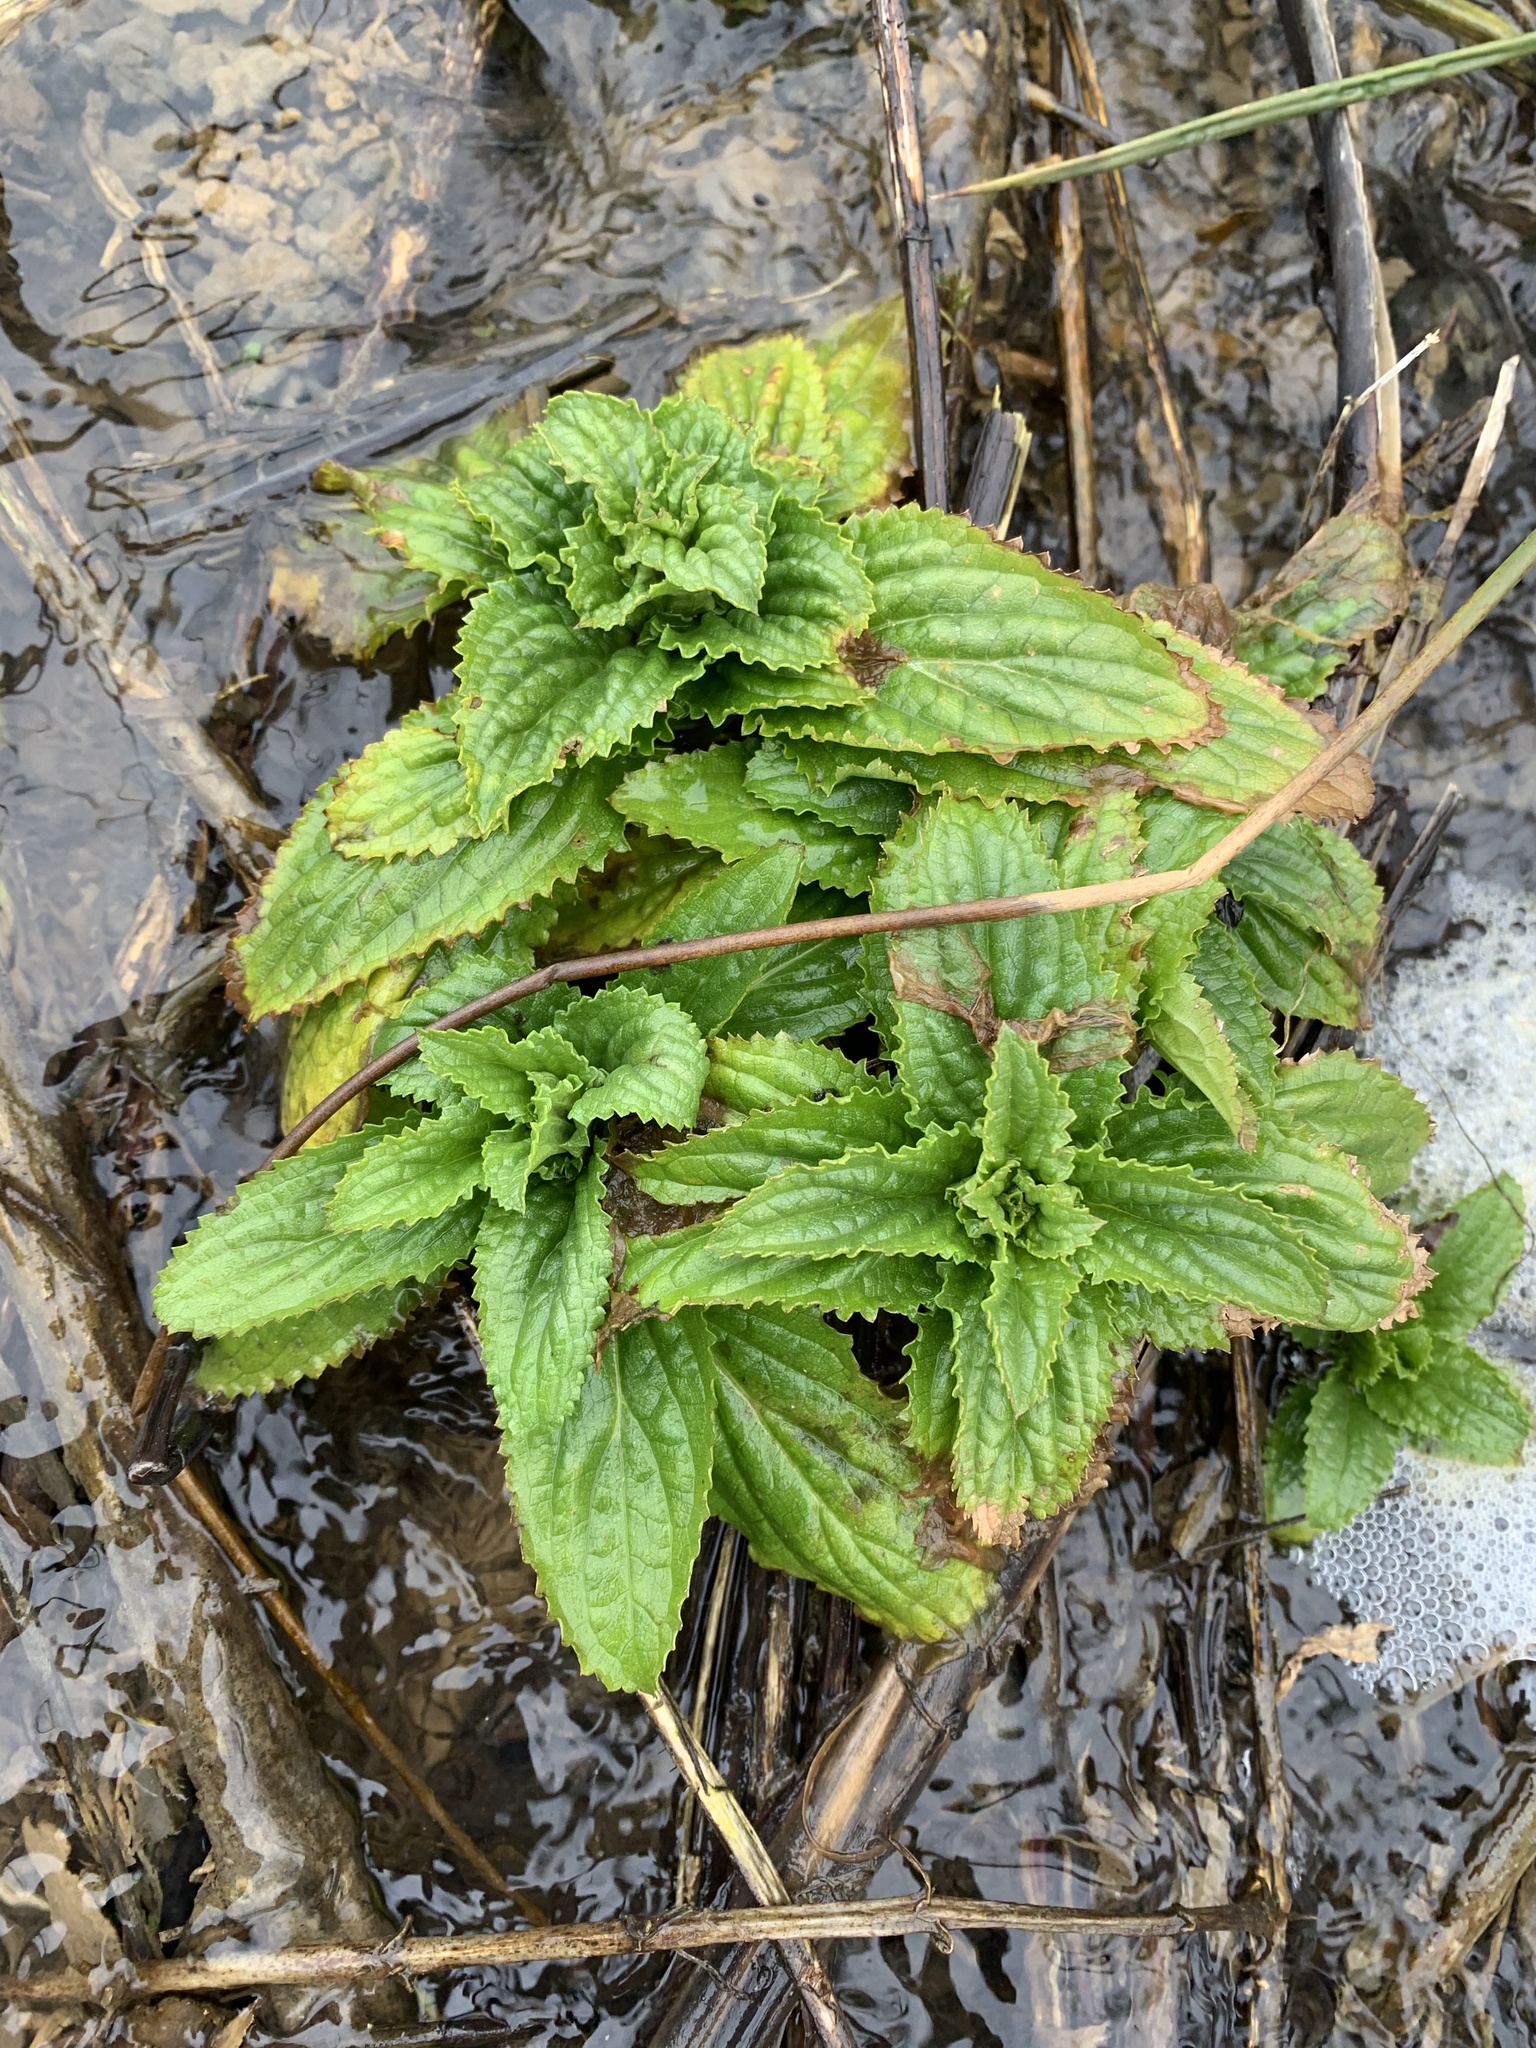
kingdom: Plantae
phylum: Tracheophyta
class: Magnoliopsida
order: Lamiales
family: Scrophulariaceae
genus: Scrophularia
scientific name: Scrophularia umbrosa
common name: Green figwort
